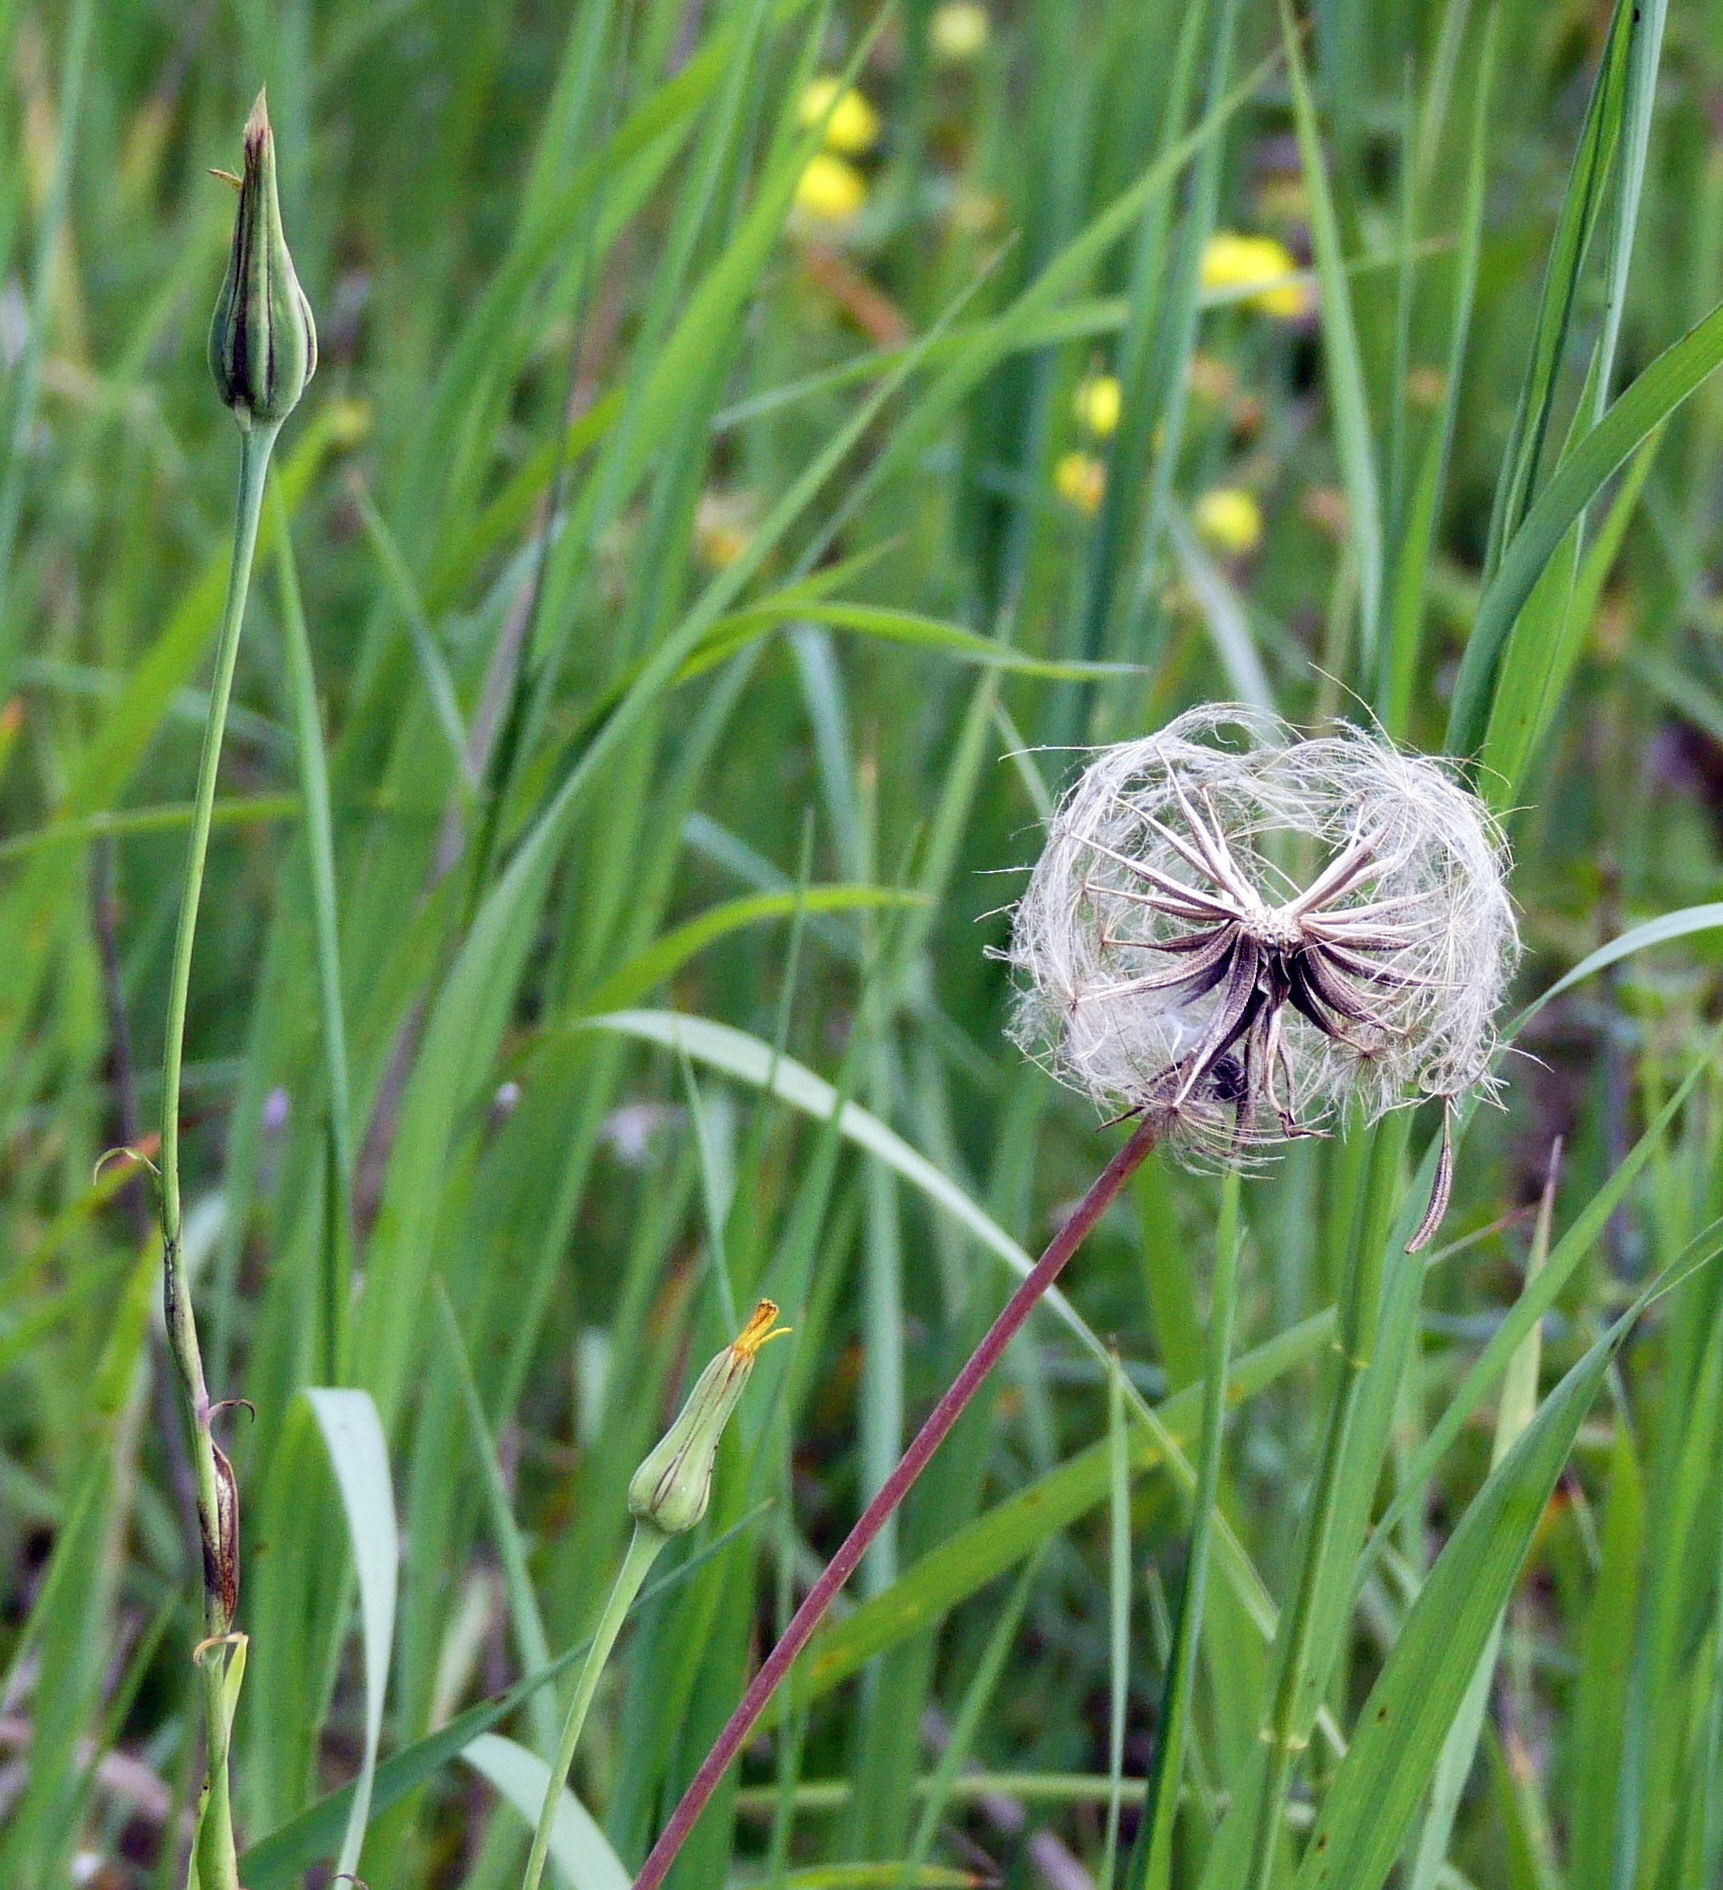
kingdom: Plantae
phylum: Tracheophyta
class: Magnoliopsida
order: Asterales
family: Asteraceae
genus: Tragopogon
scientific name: Tragopogon pratensis
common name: Goat's-beard
